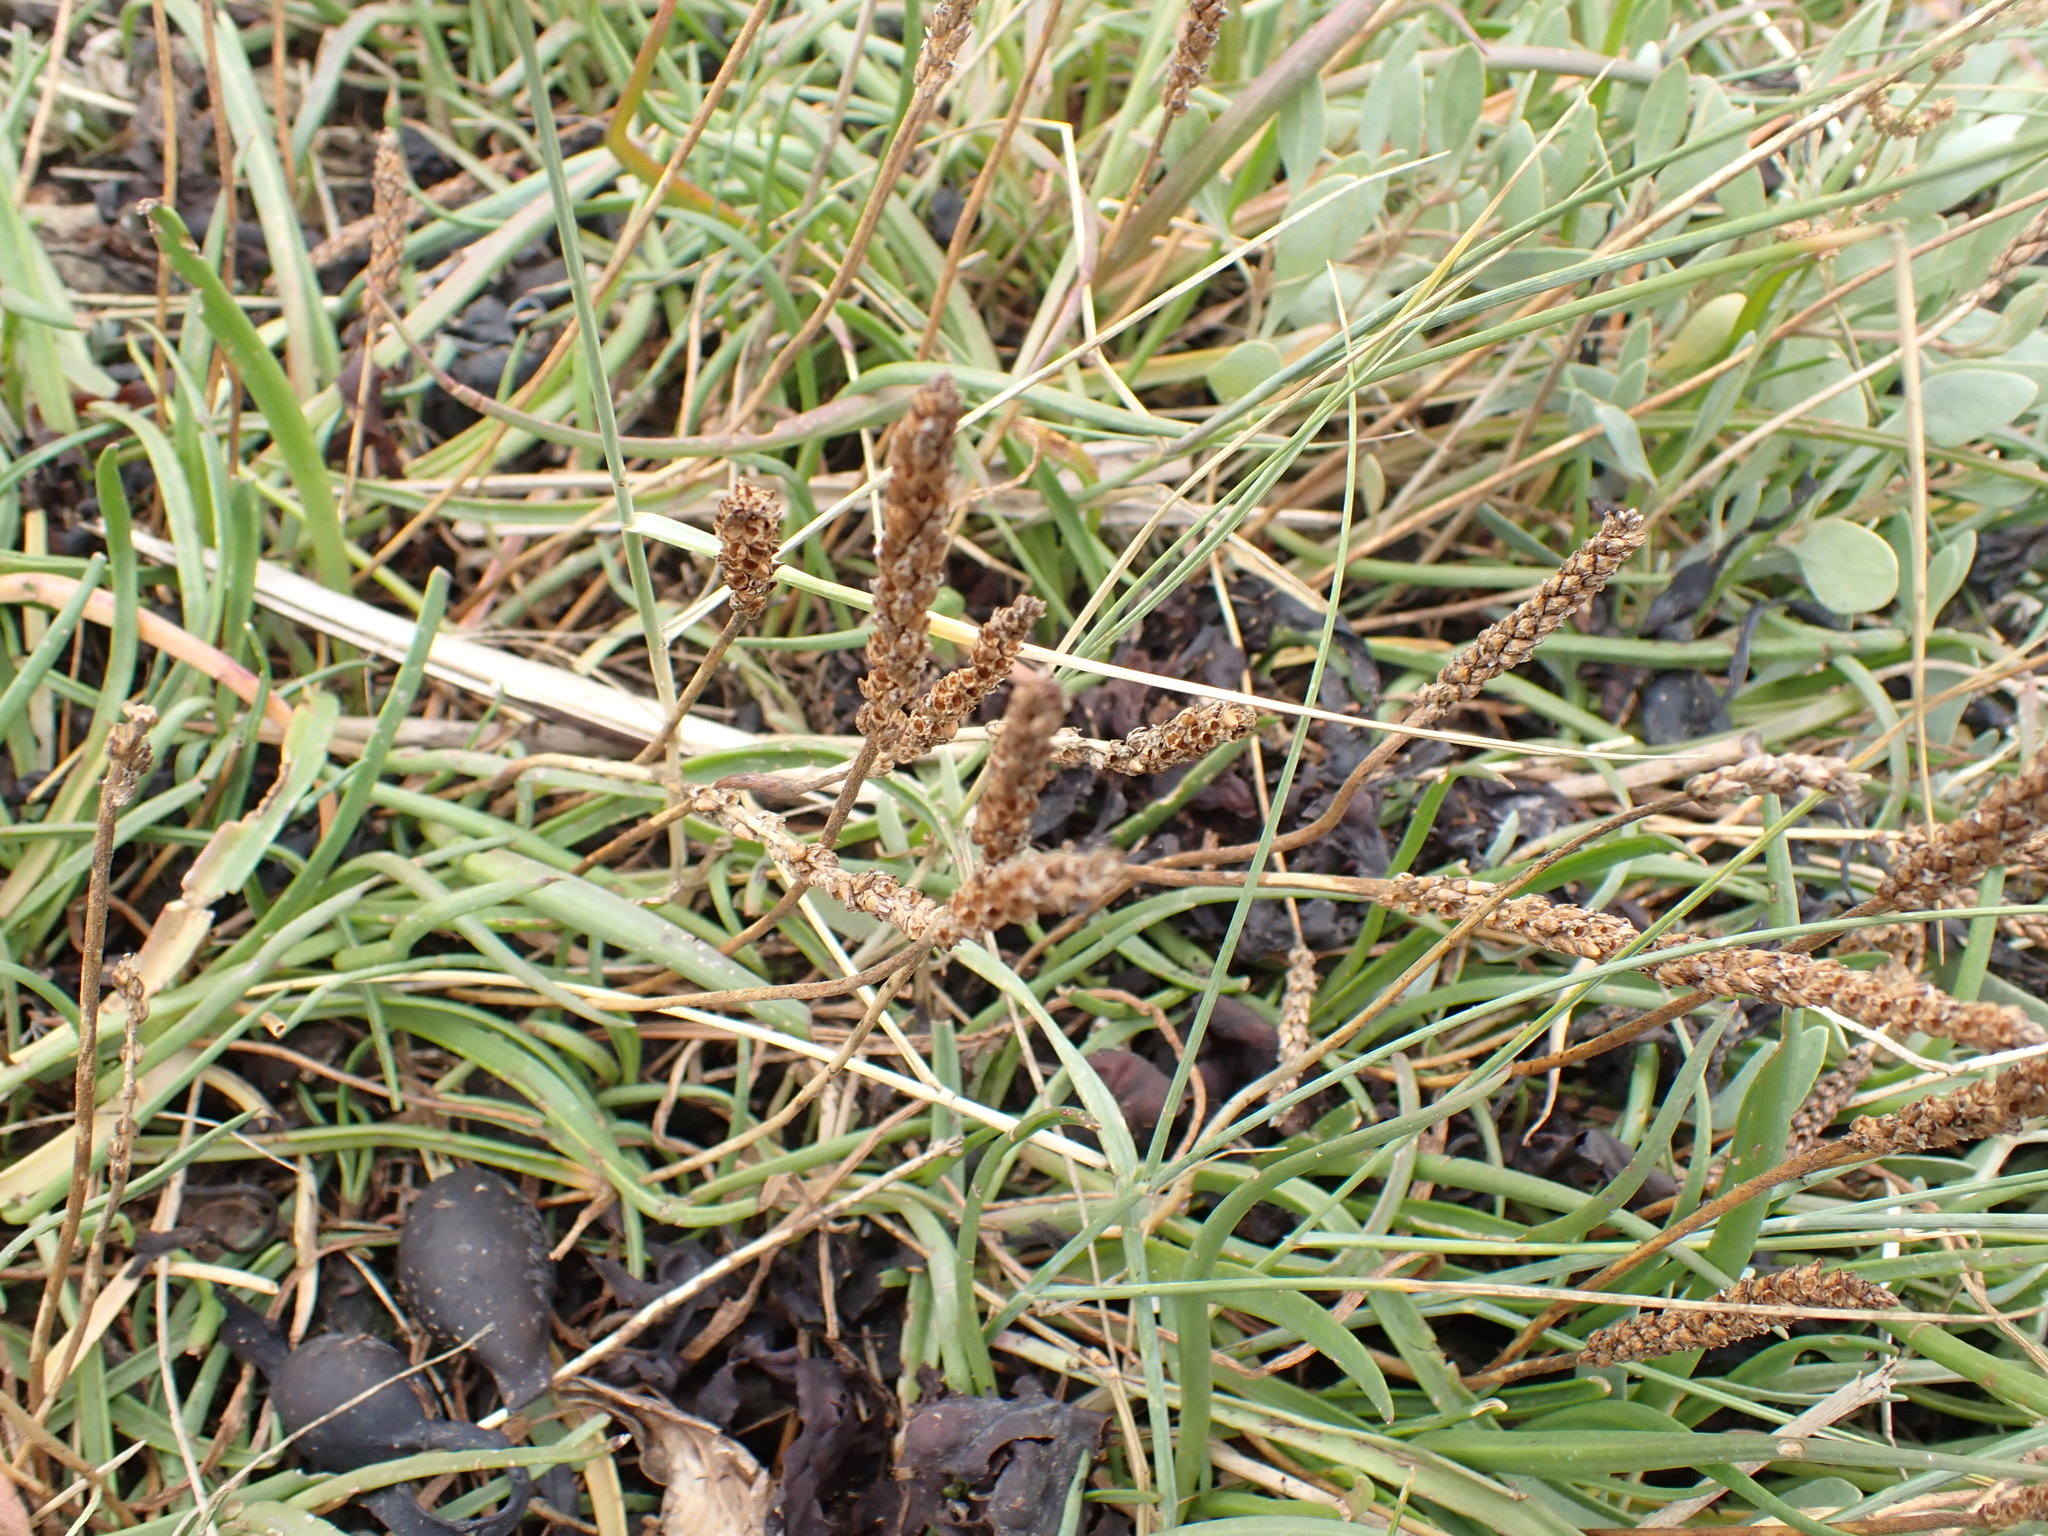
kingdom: Plantae
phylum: Tracheophyta
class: Magnoliopsida
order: Lamiales
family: Plantaginaceae
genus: Plantago
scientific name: Plantago maritima
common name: Sea plantain
